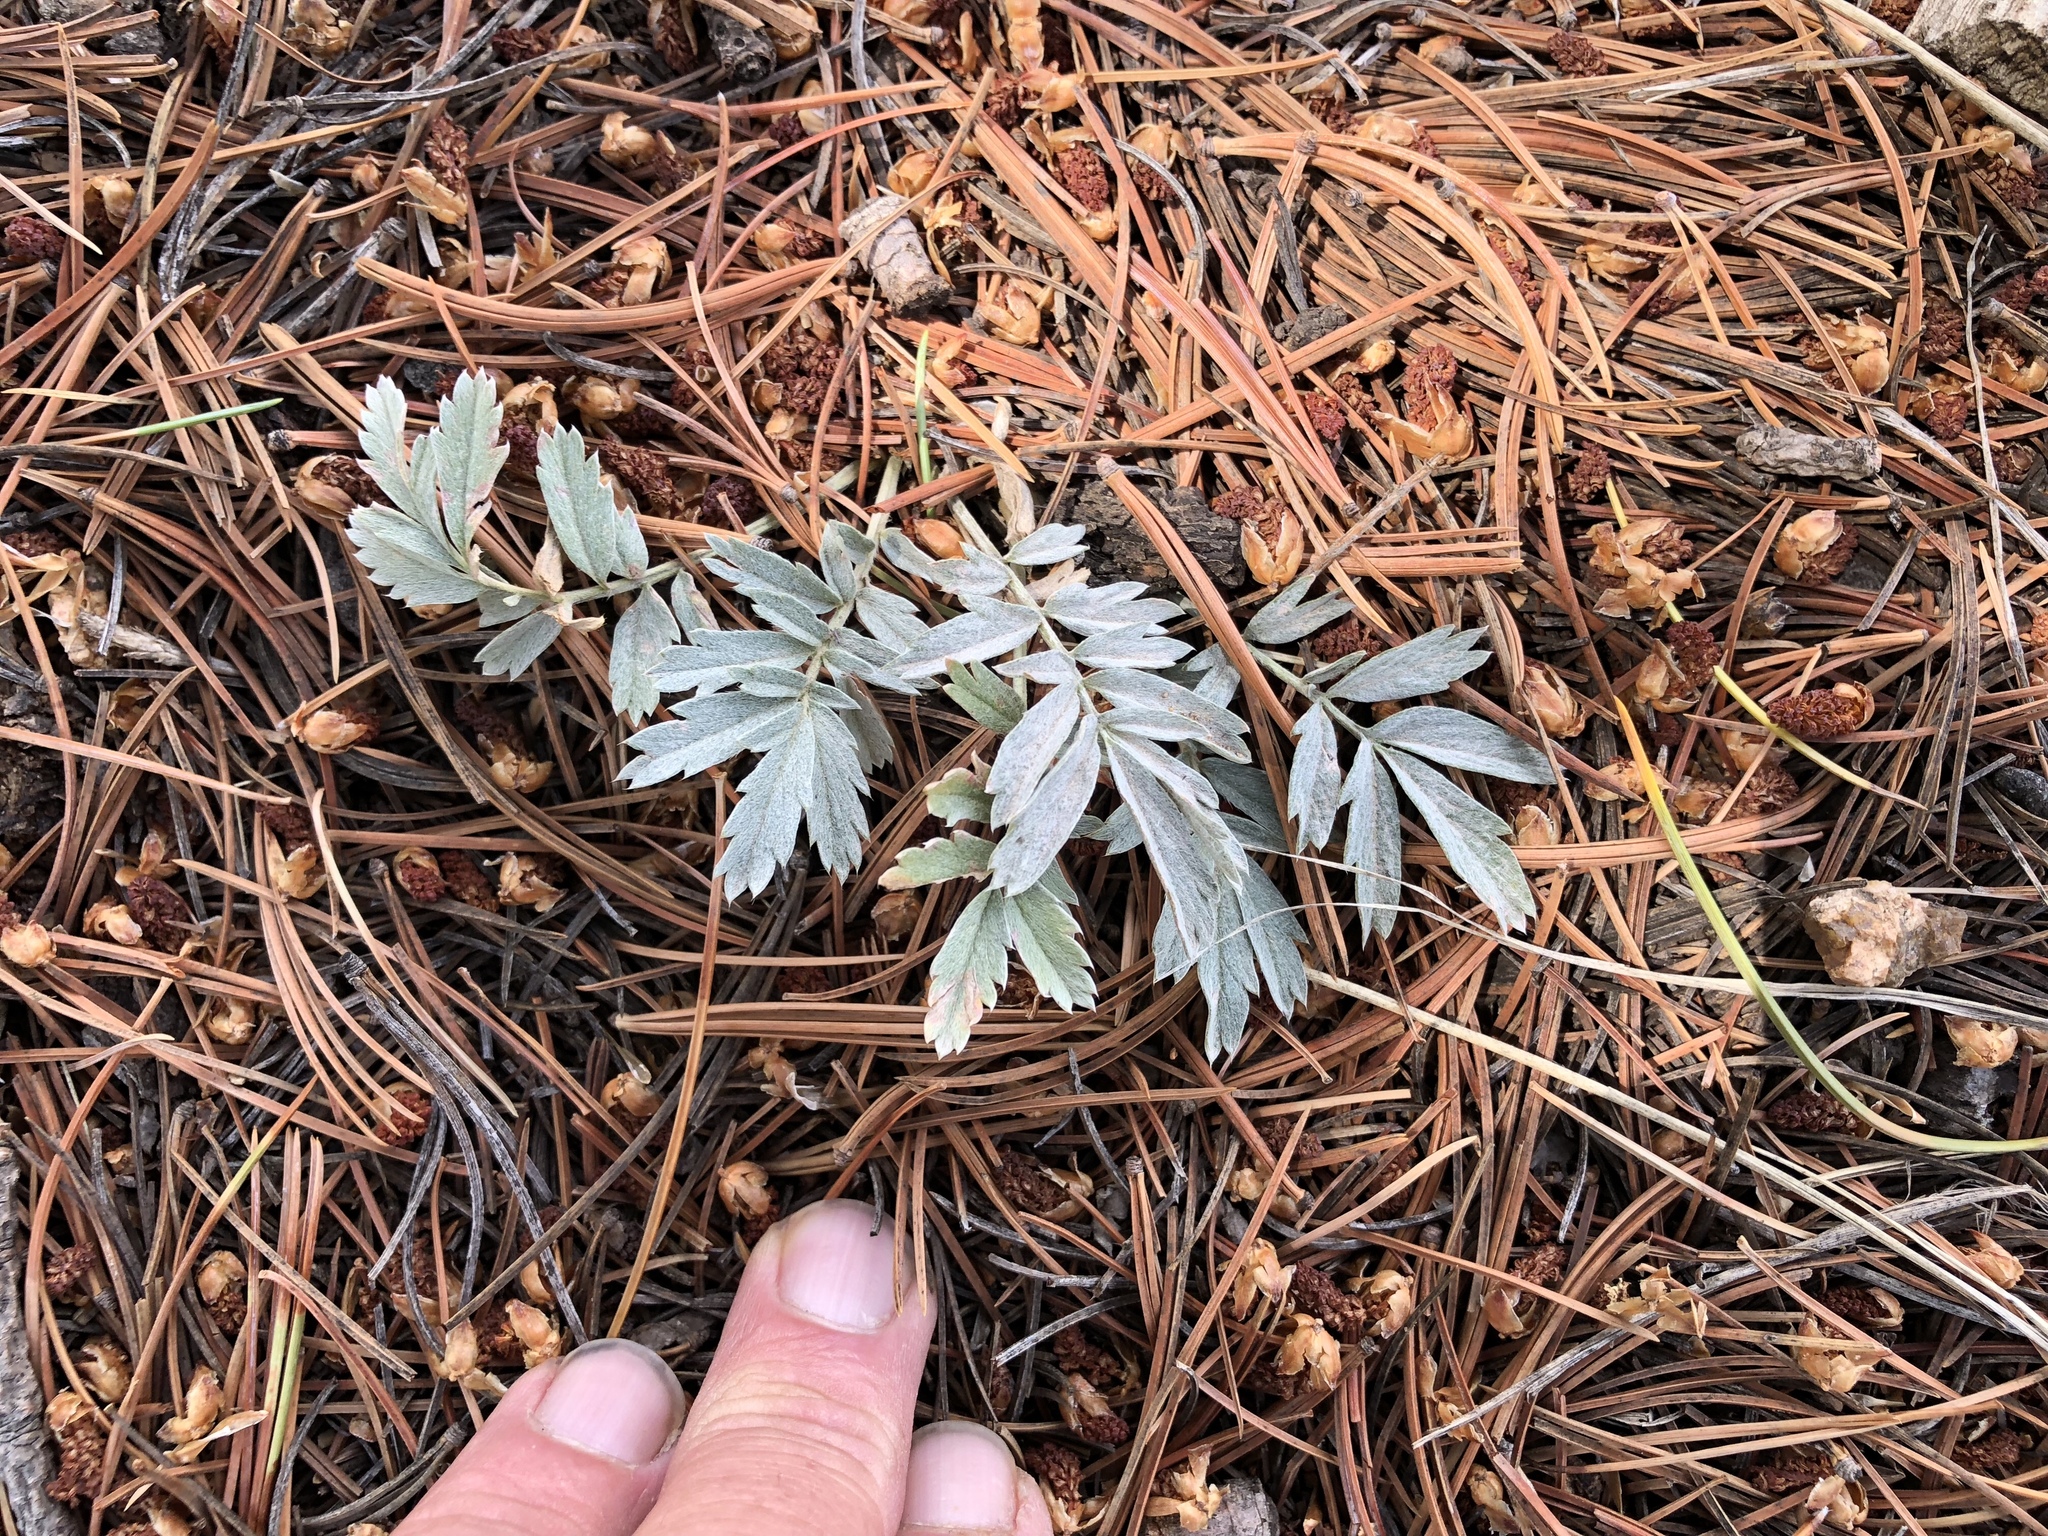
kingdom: Plantae
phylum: Tracheophyta
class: Magnoliopsida
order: Rosales
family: Rosaceae
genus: Potentilla
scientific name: Potentilla hippiana
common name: Woolly cinquefoil
